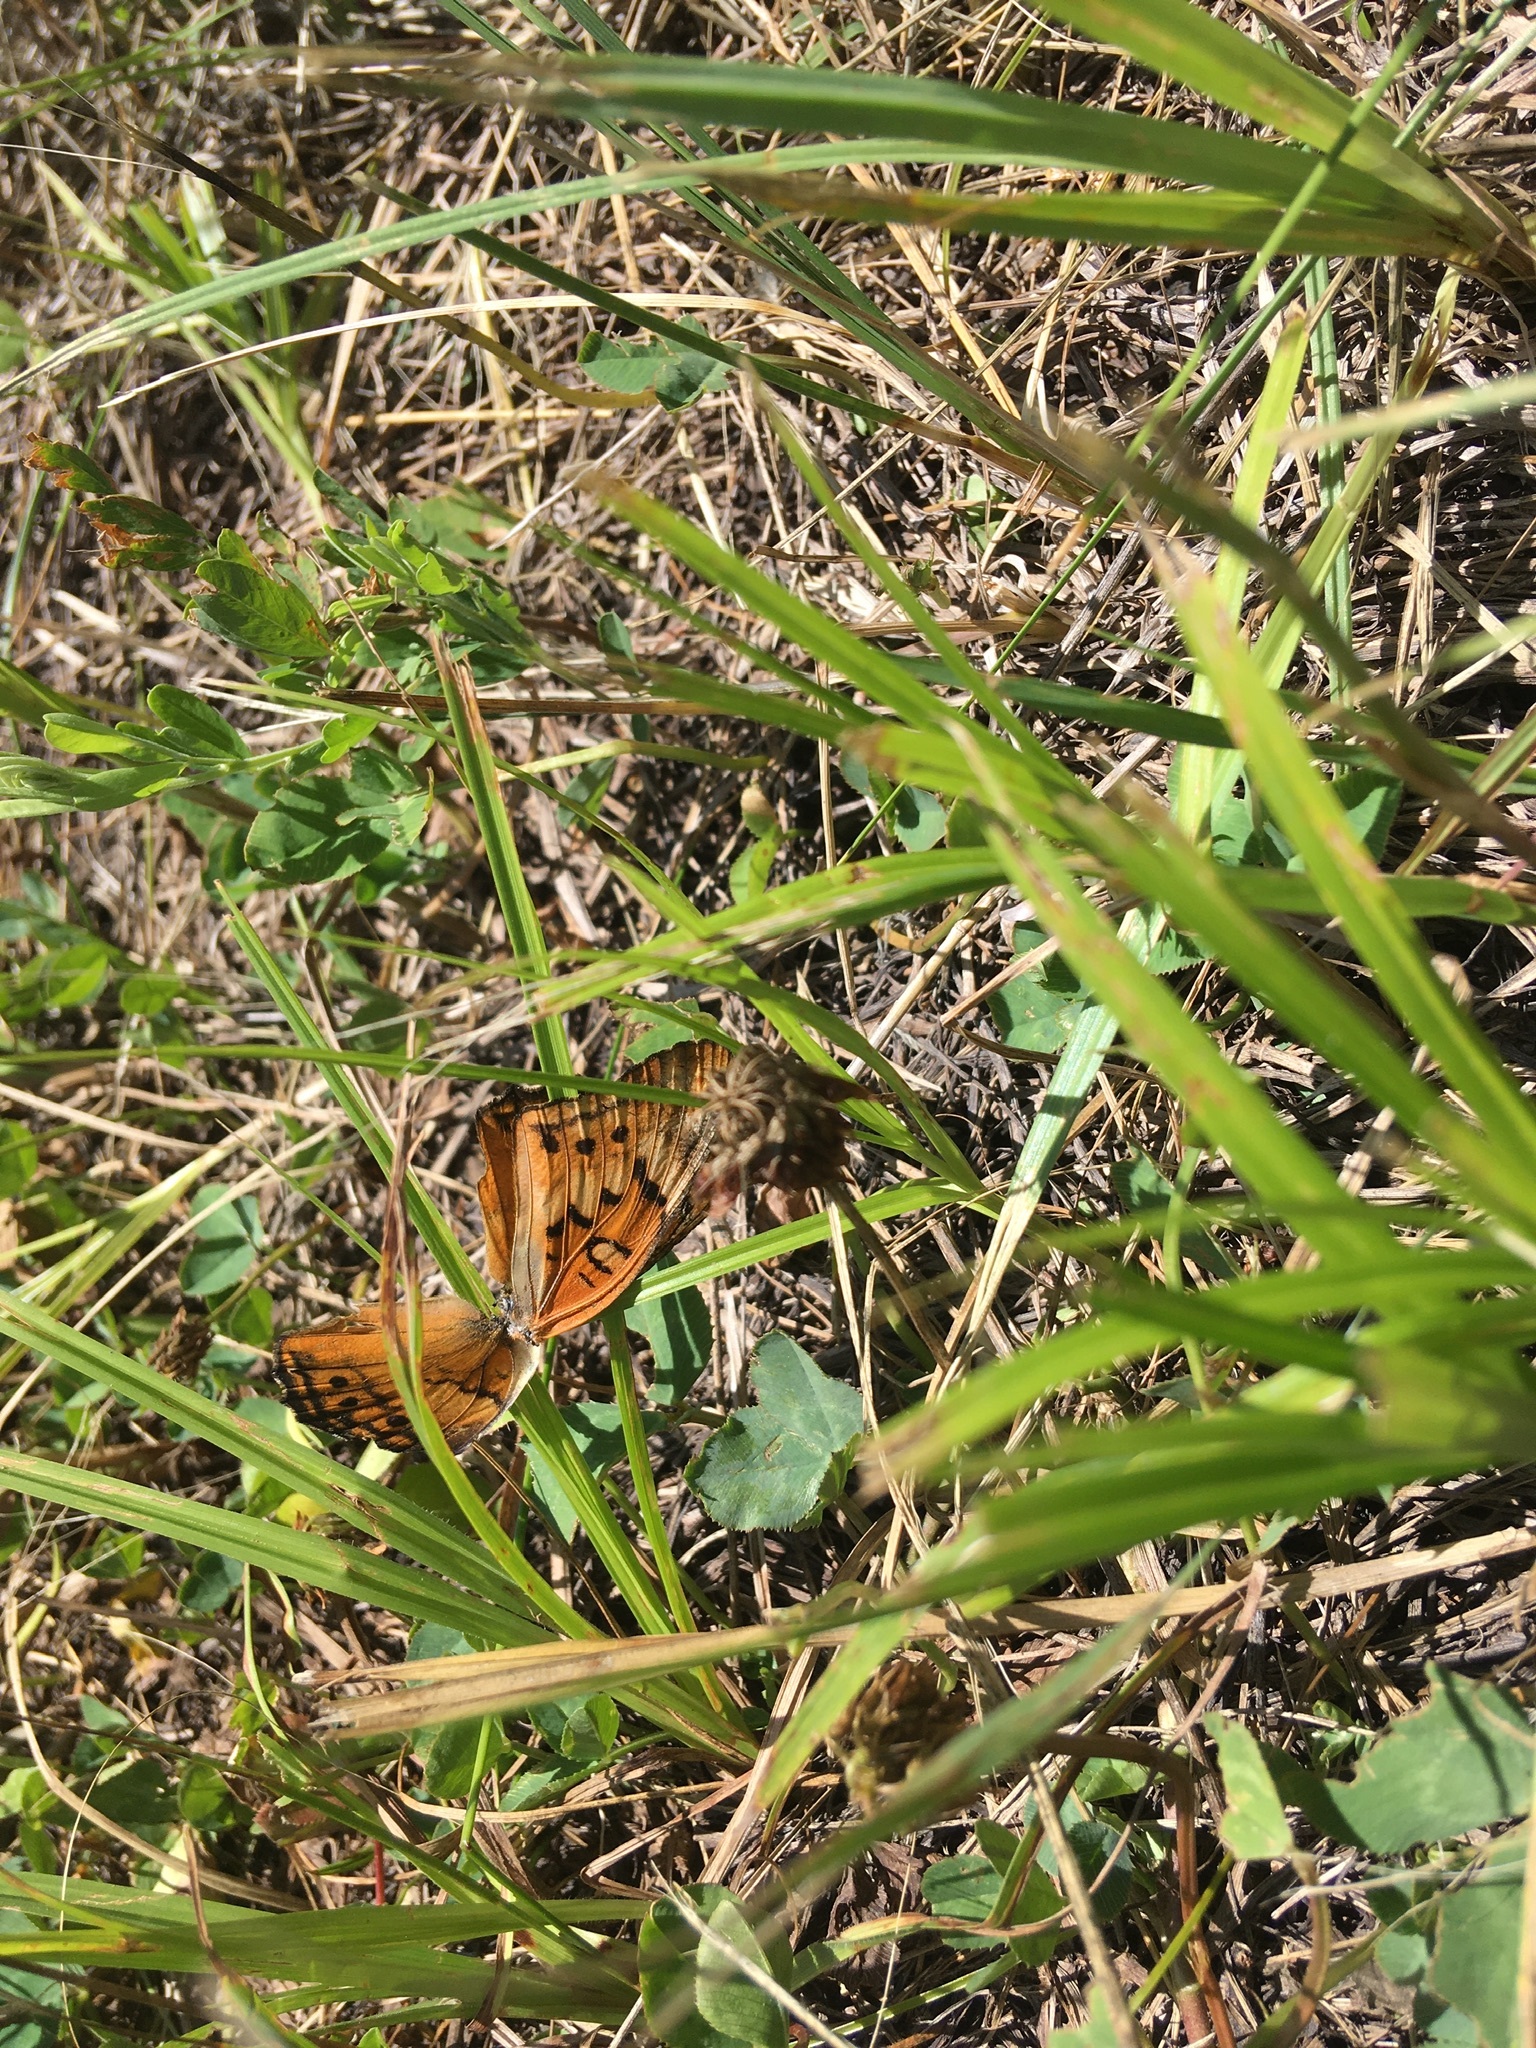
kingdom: Animalia
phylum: Arthropoda
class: Insecta
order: Lepidoptera
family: Nymphalidae
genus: Euptoieta
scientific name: Euptoieta claudia
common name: Variegated fritillary
